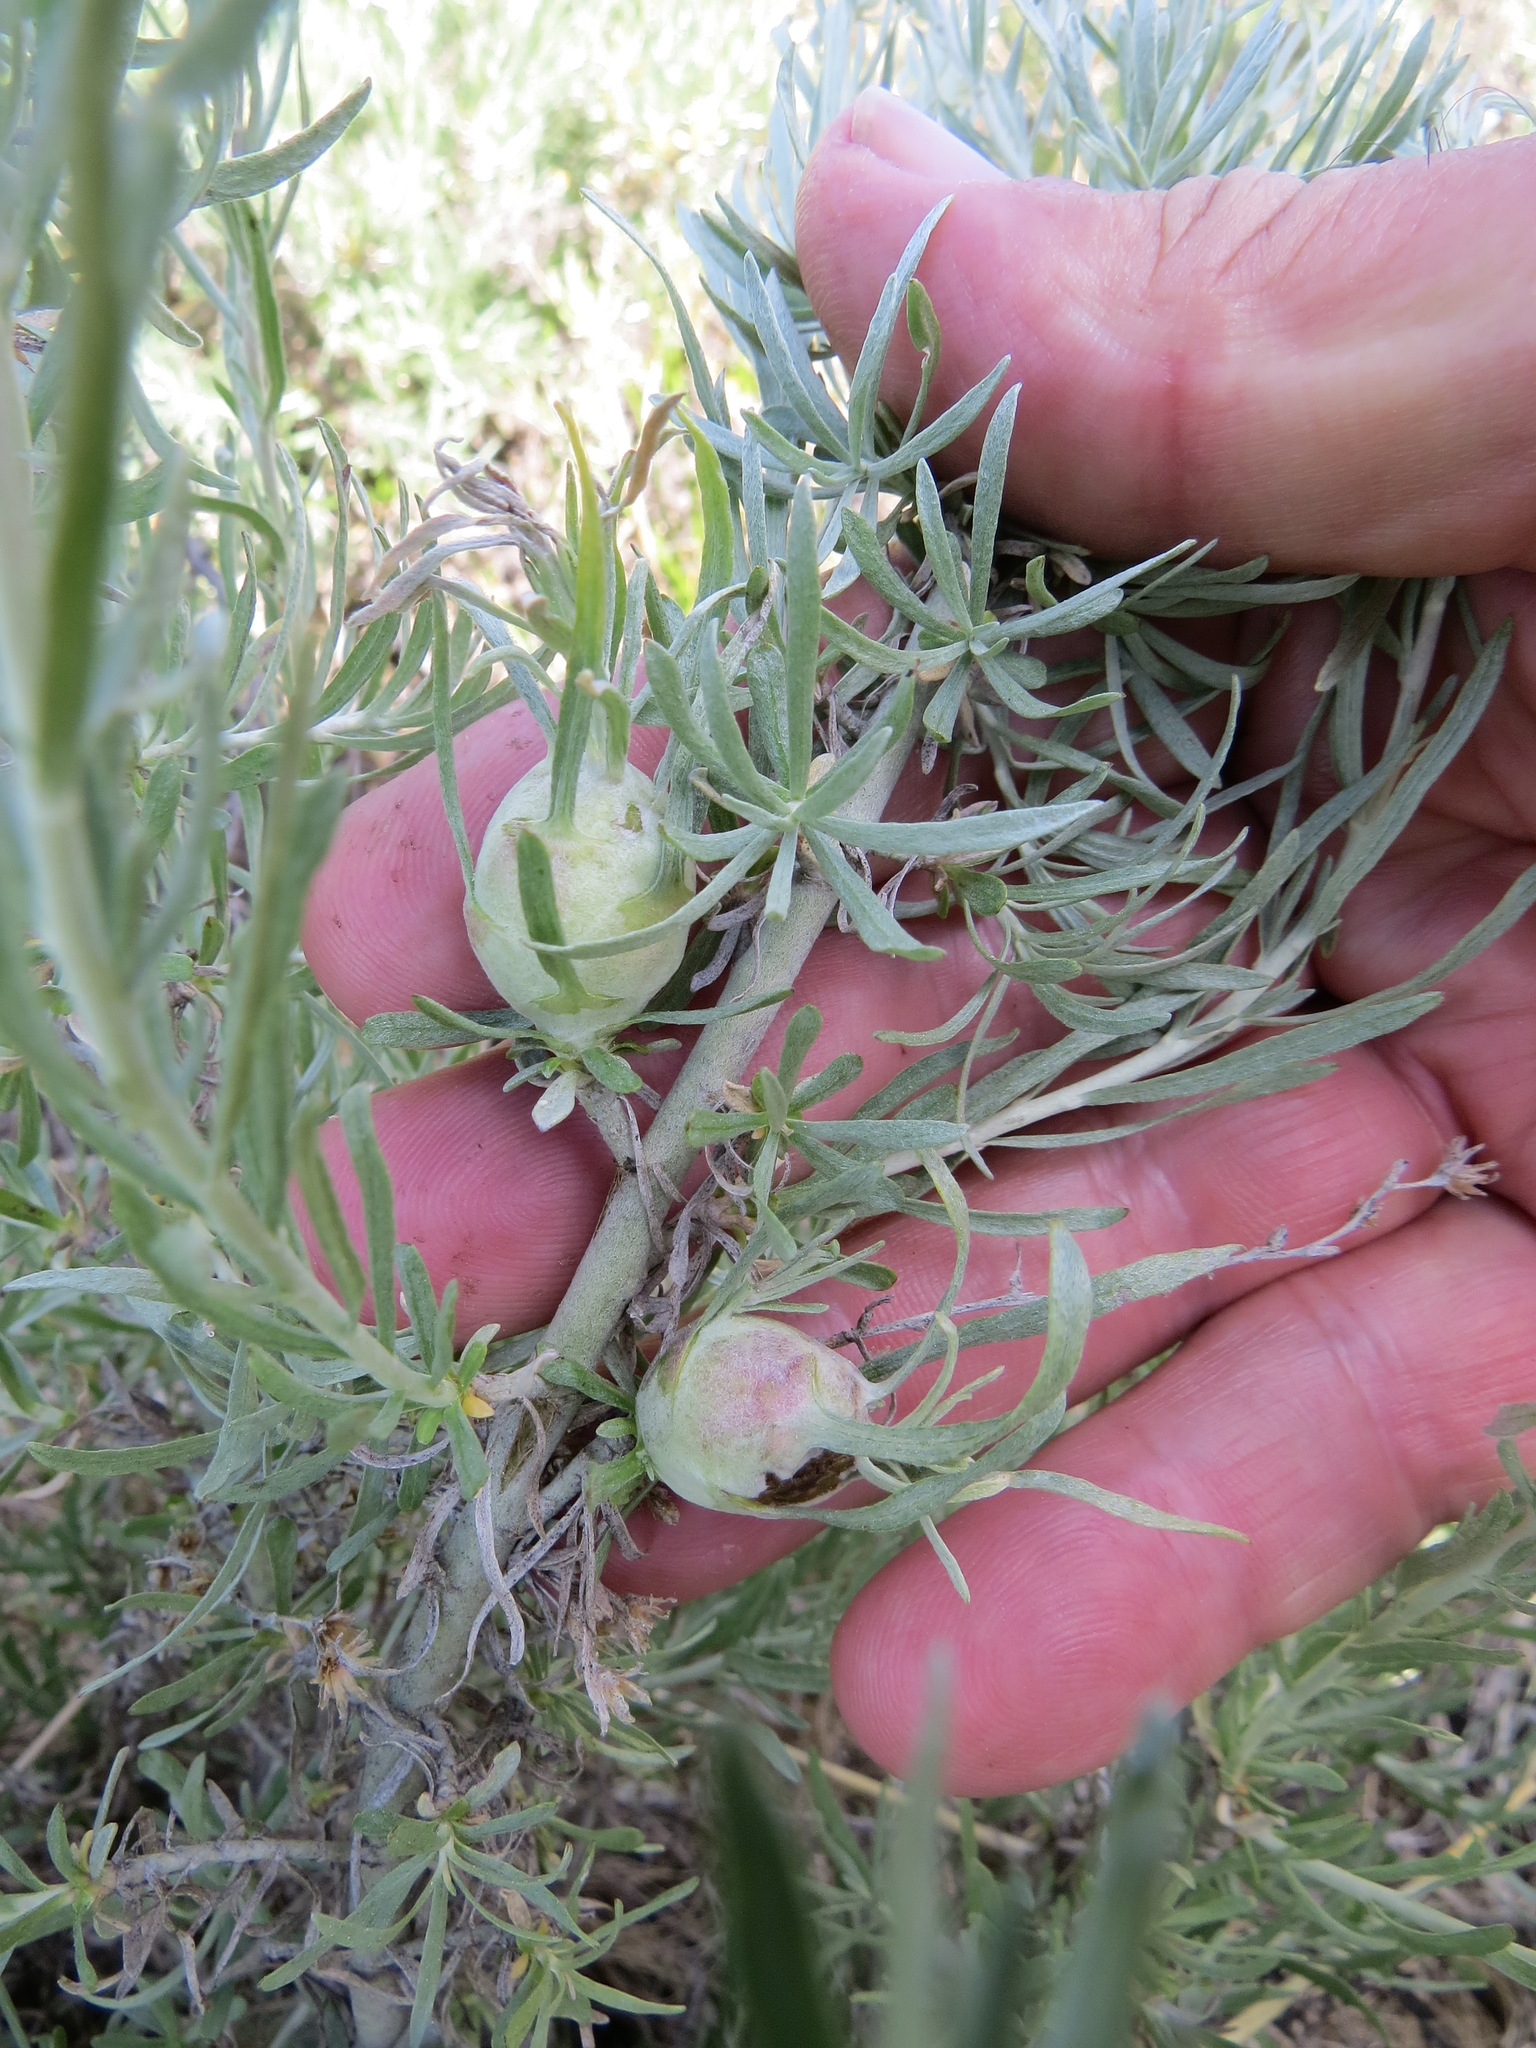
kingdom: Animalia
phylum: Arthropoda
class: Insecta
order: Diptera
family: Tephritidae
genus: Eutreta
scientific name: Eutreta diana
